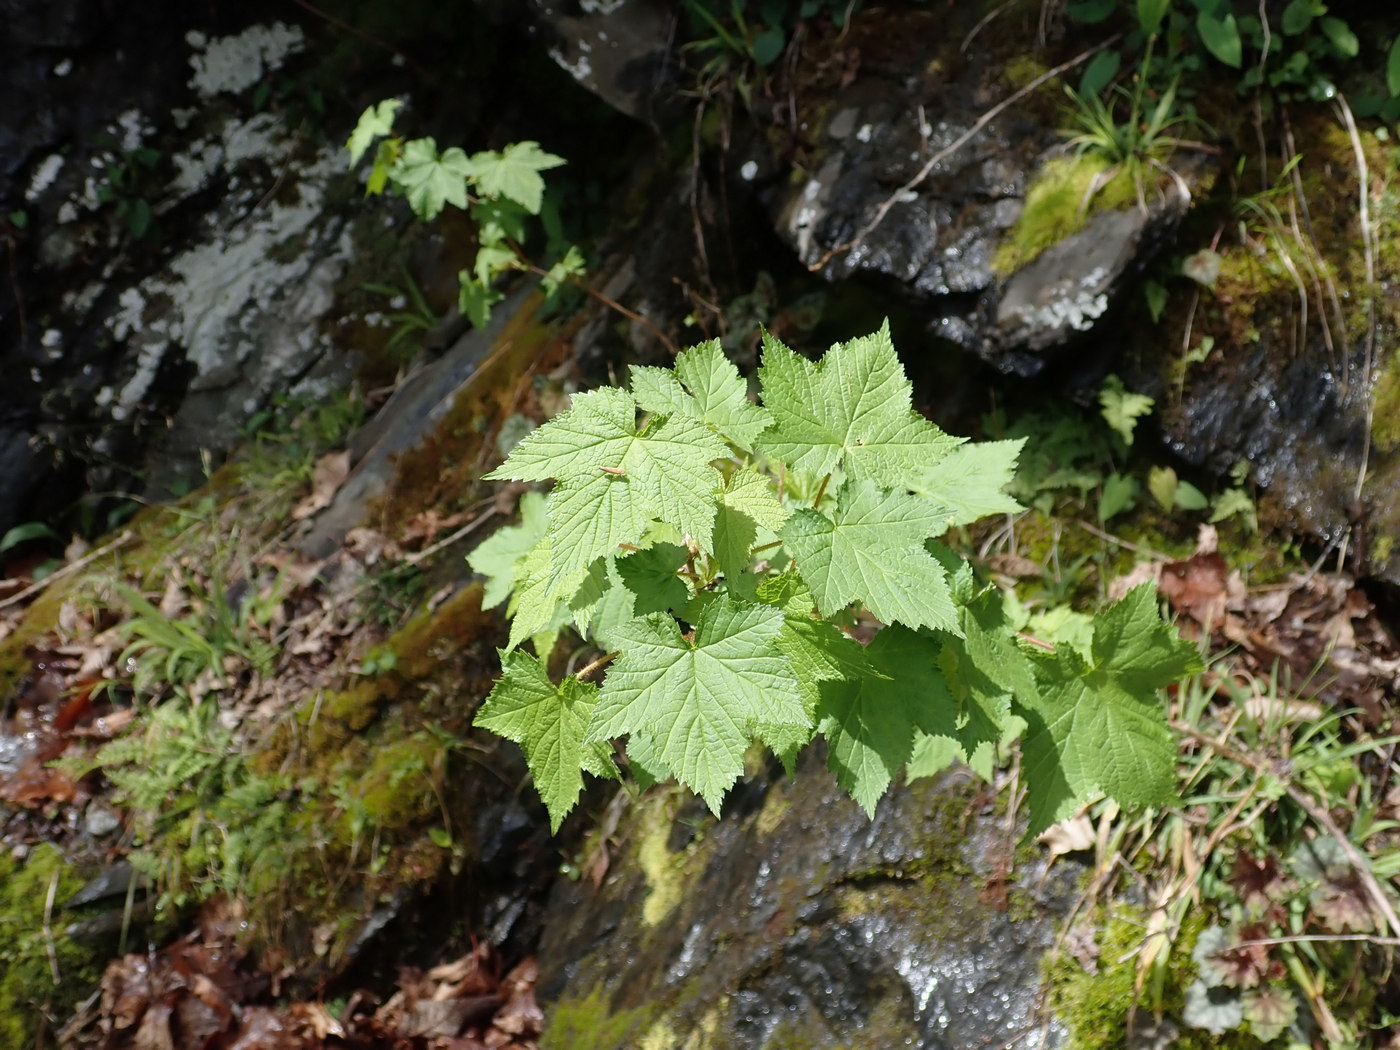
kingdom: Plantae
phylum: Tracheophyta
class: Magnoliopsida
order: Rosales
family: Rosaceae
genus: Rubus
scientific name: Rubus odoratus
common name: Purple-flowered raspberry
